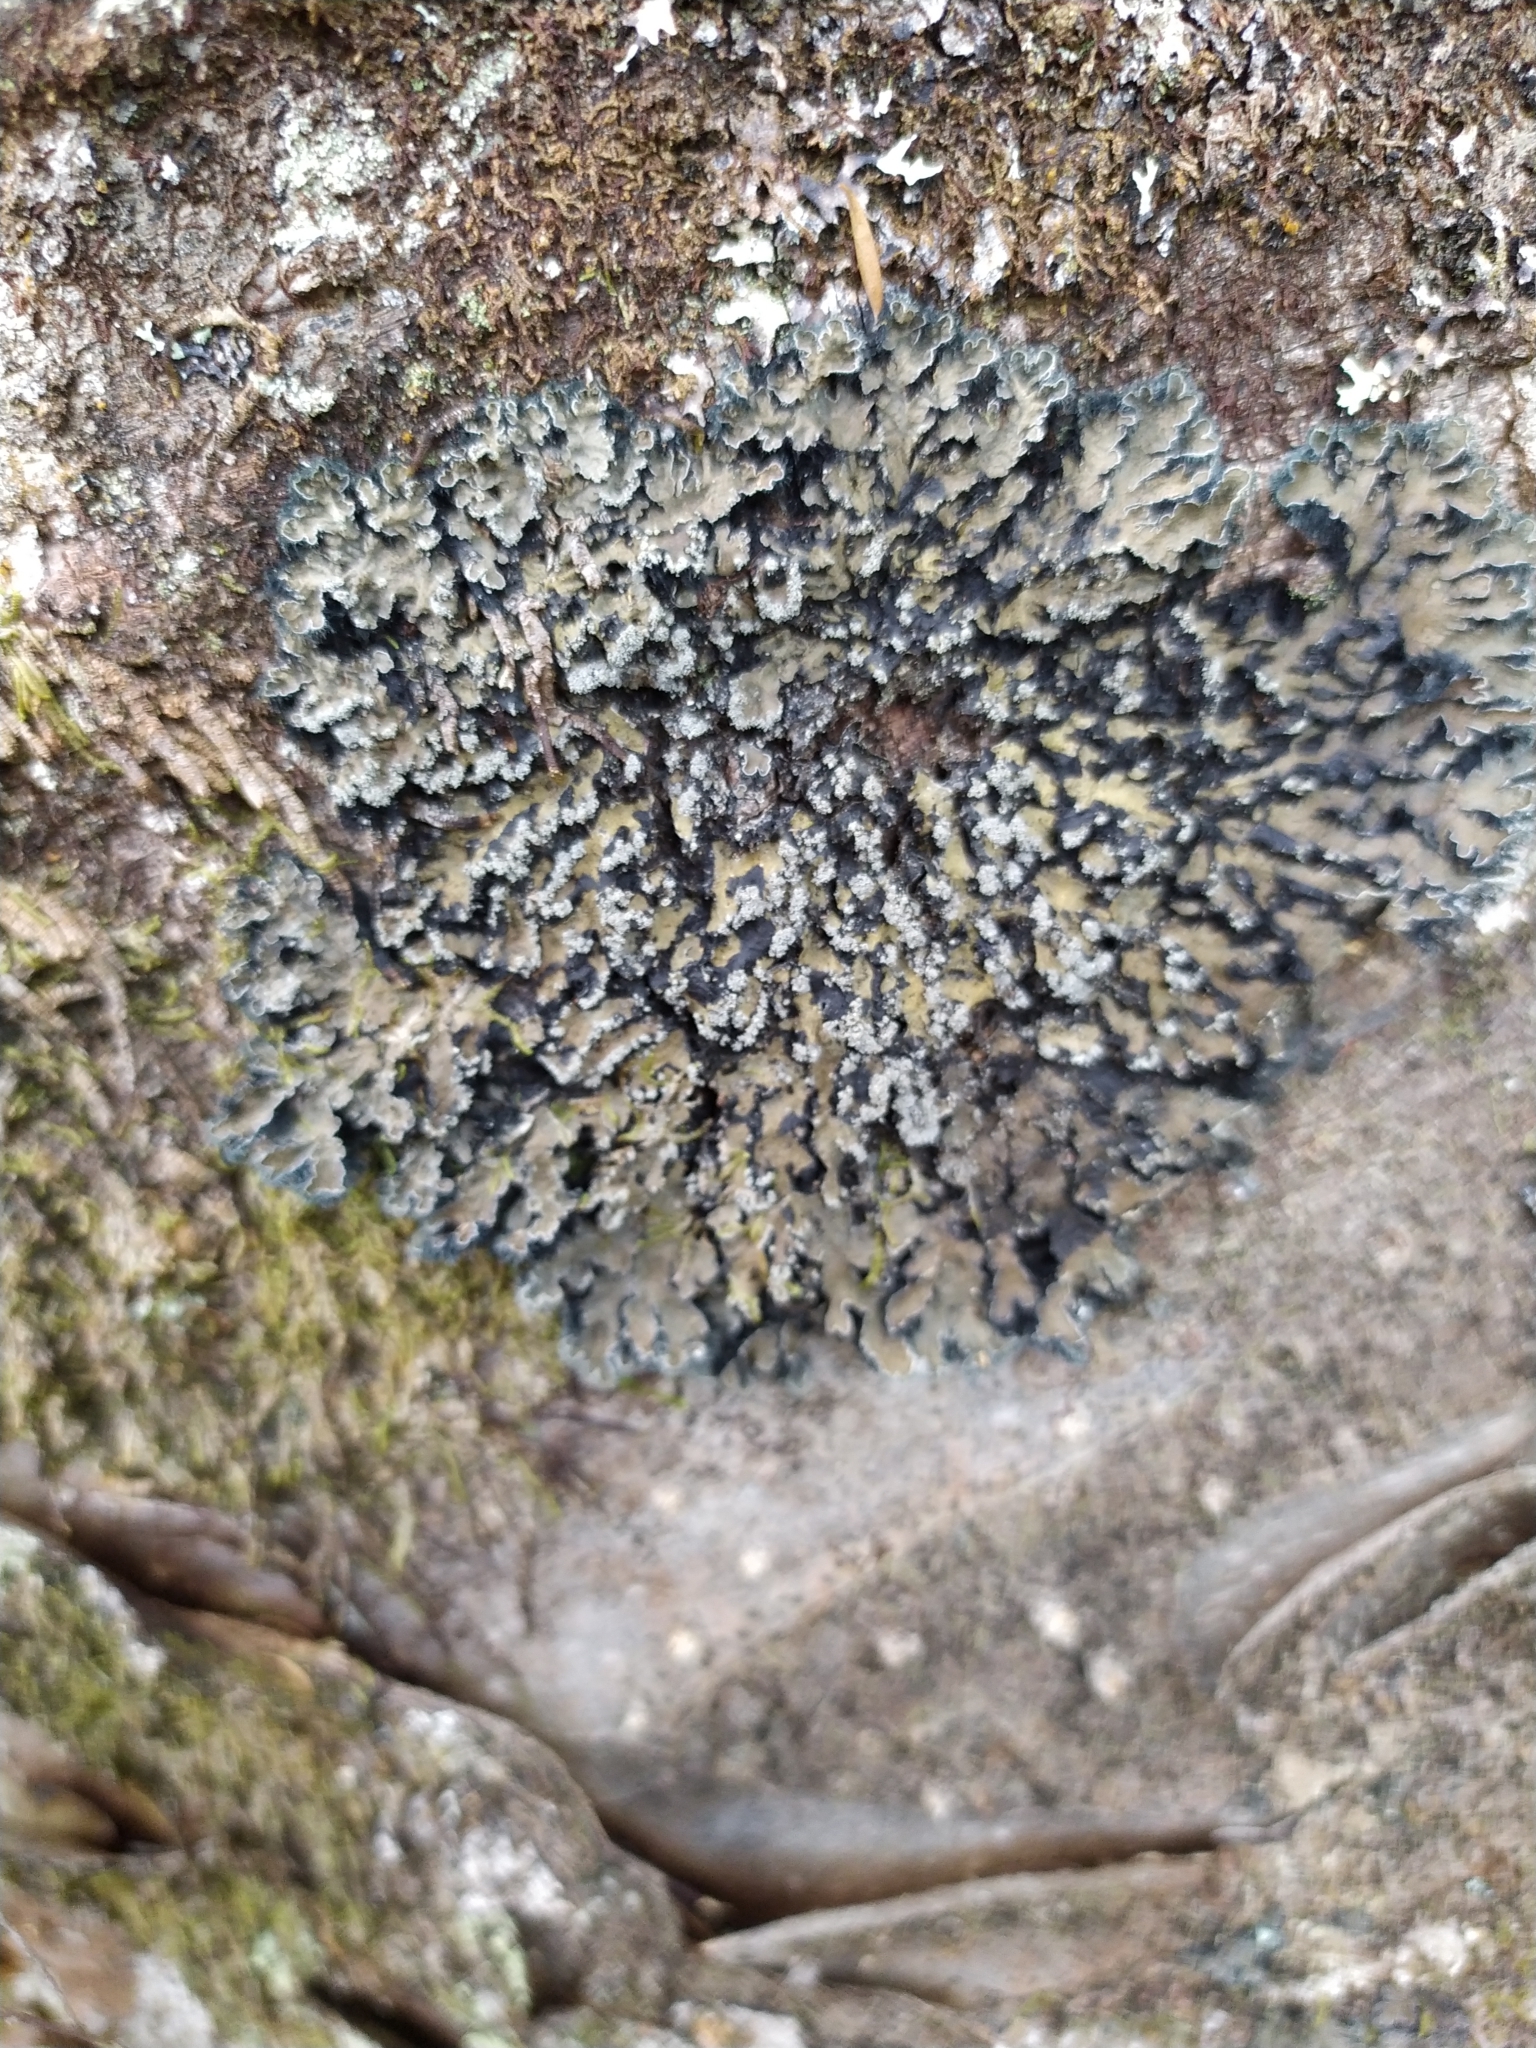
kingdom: Fungi
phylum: Ascomycota
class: Lecanoromycetes
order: Peltigerales
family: Pannariaceae
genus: Leioderma
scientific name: Leioderma duplicatum
